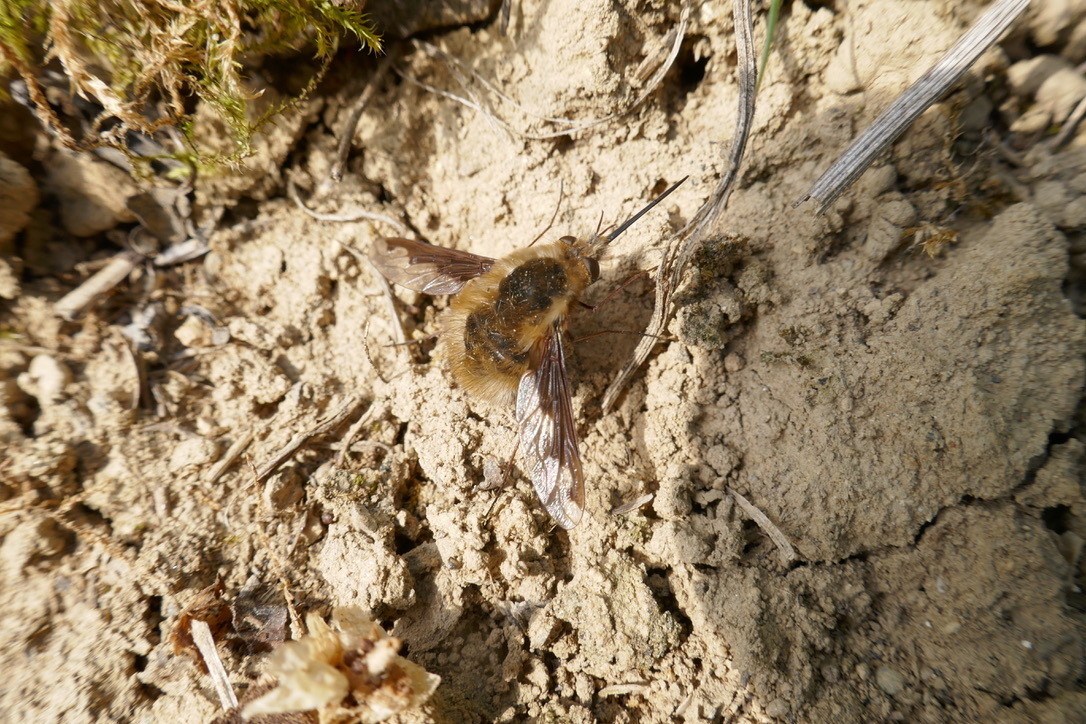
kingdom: Animalia
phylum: Arthropoda
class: Insecta
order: Diptera
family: Bombyliidae
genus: Bombylius
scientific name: Bombylius major
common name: Bee fly
